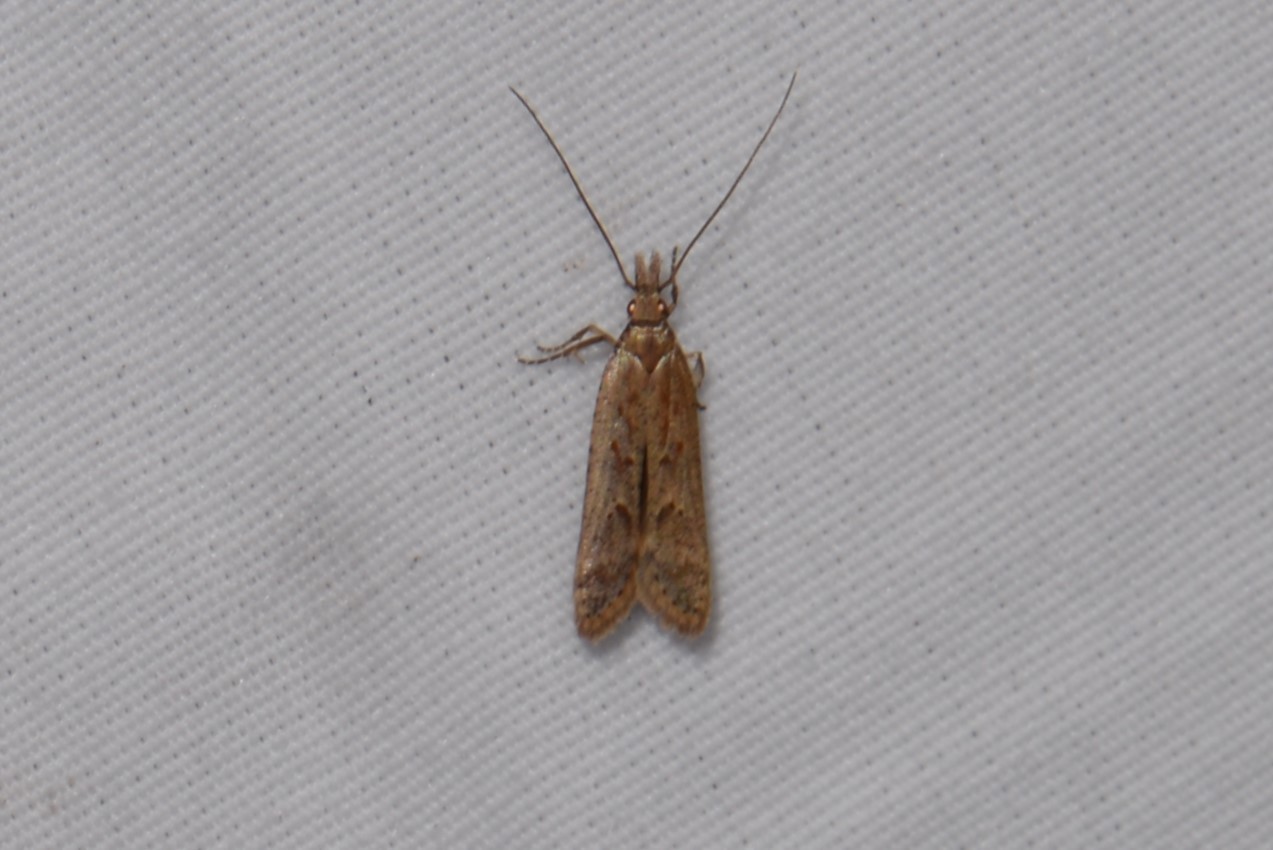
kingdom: Animalia
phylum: Arthropoda
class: Insecta
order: Lepidoptera
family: Gelechiidae
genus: Dichomeris
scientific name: Dichomeris ligulella
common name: Moth
